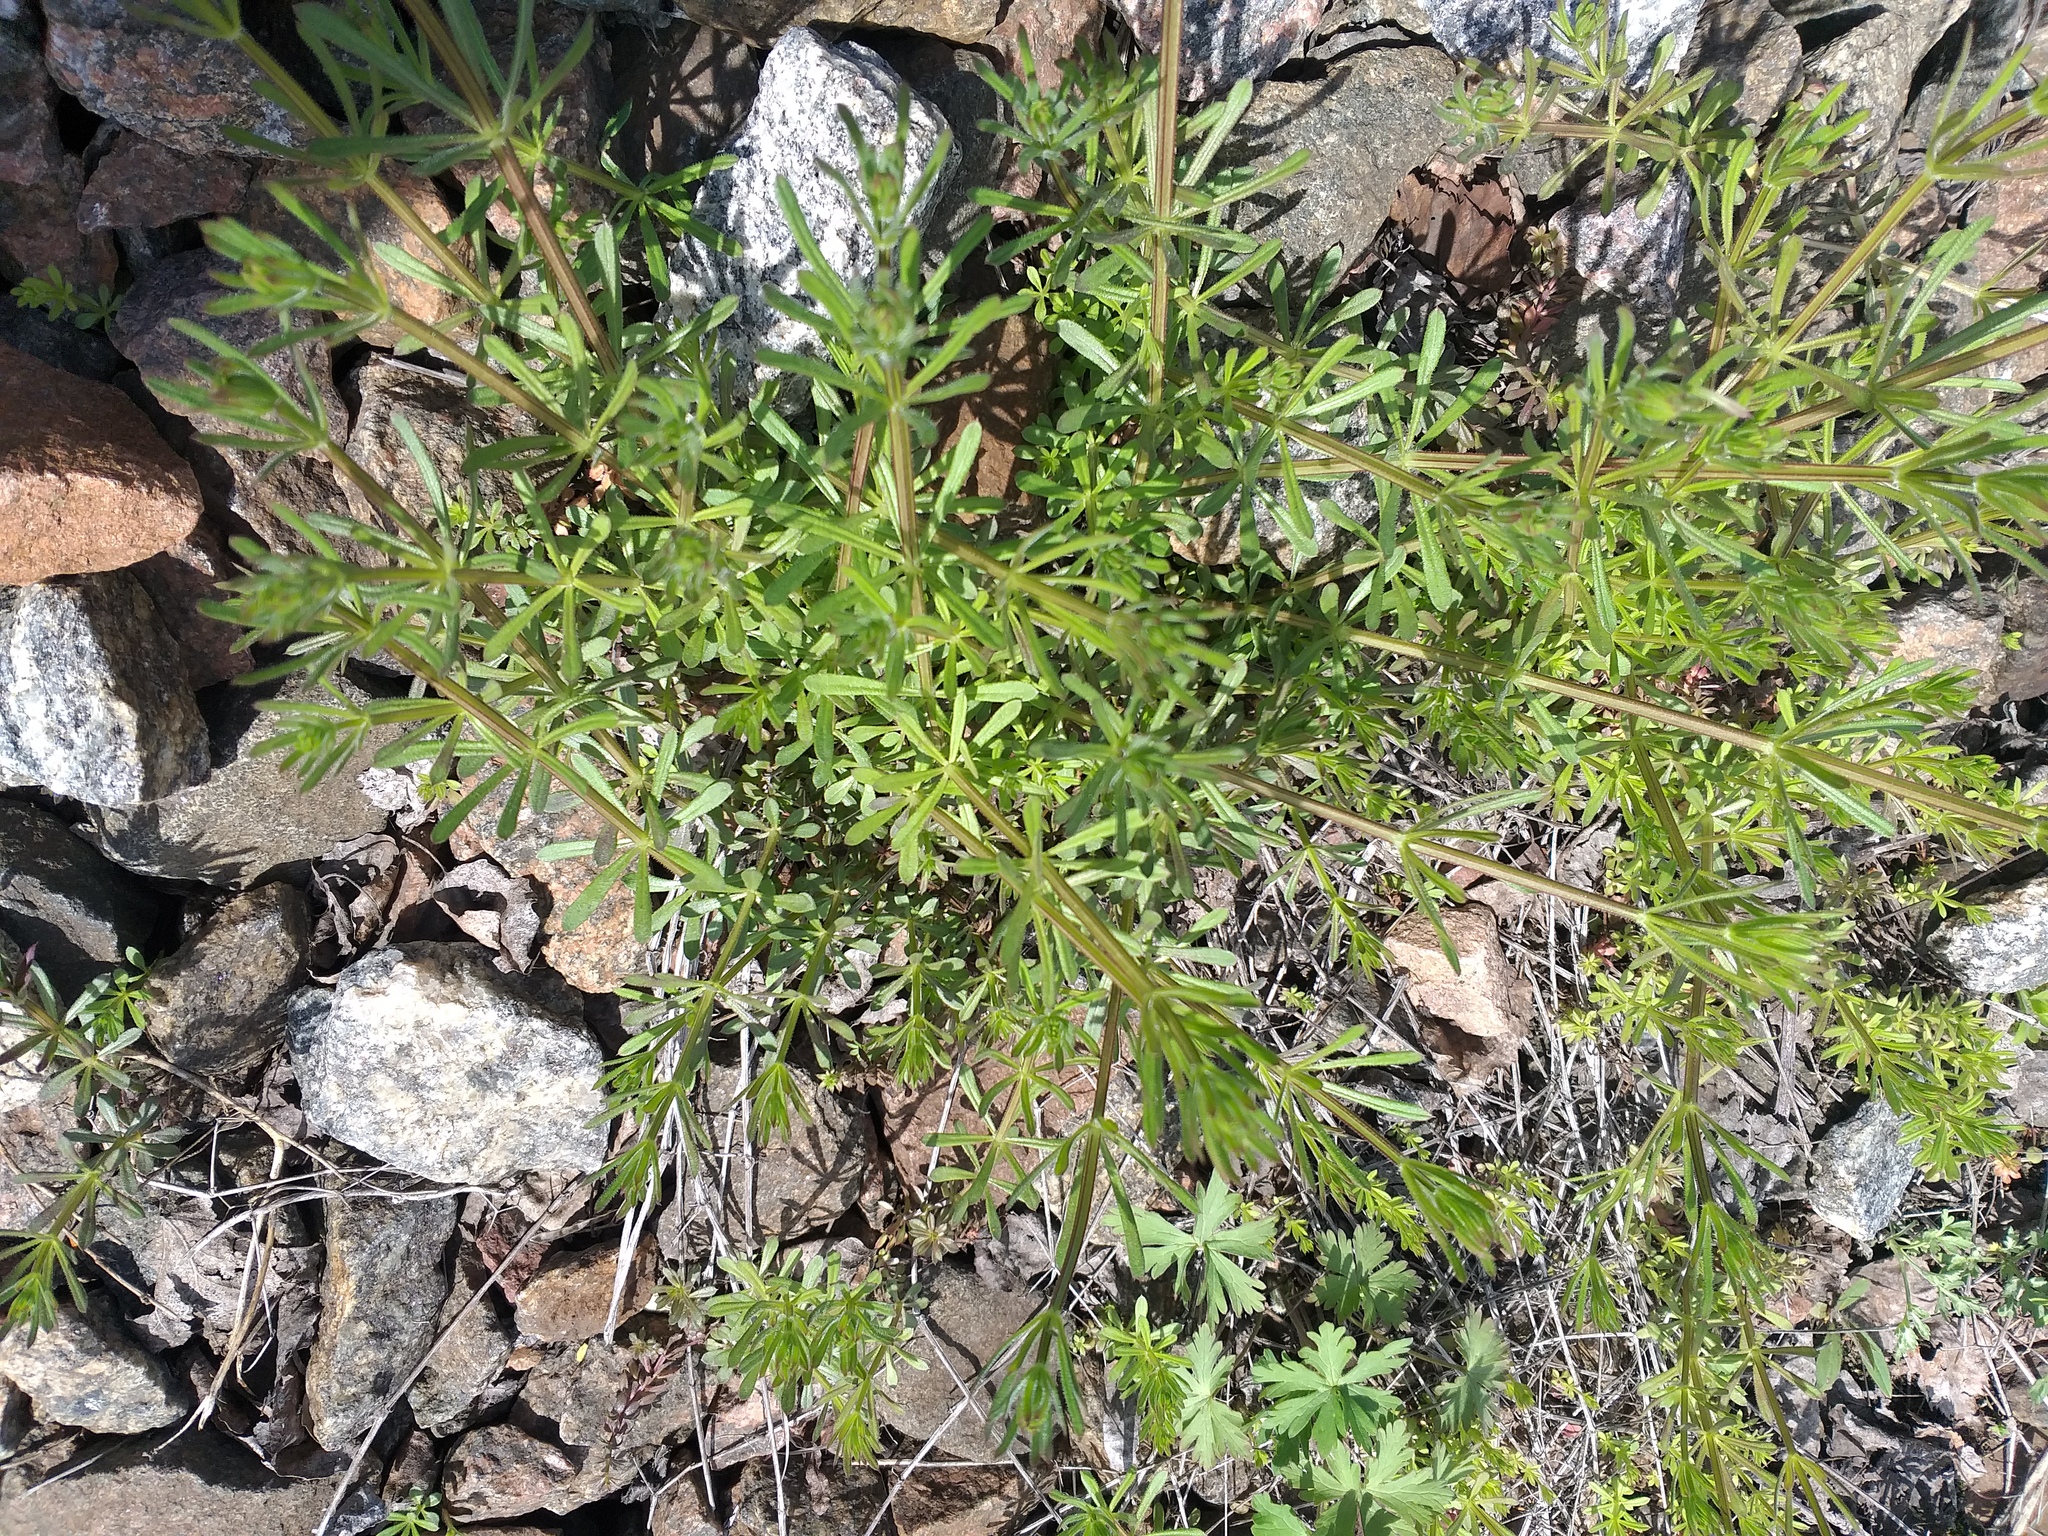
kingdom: Plantae
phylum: Tracheophyta
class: Magnoliopsida
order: Gentianales
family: Rubiaceae
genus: Galium
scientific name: Galium aparine
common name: Cleavers
